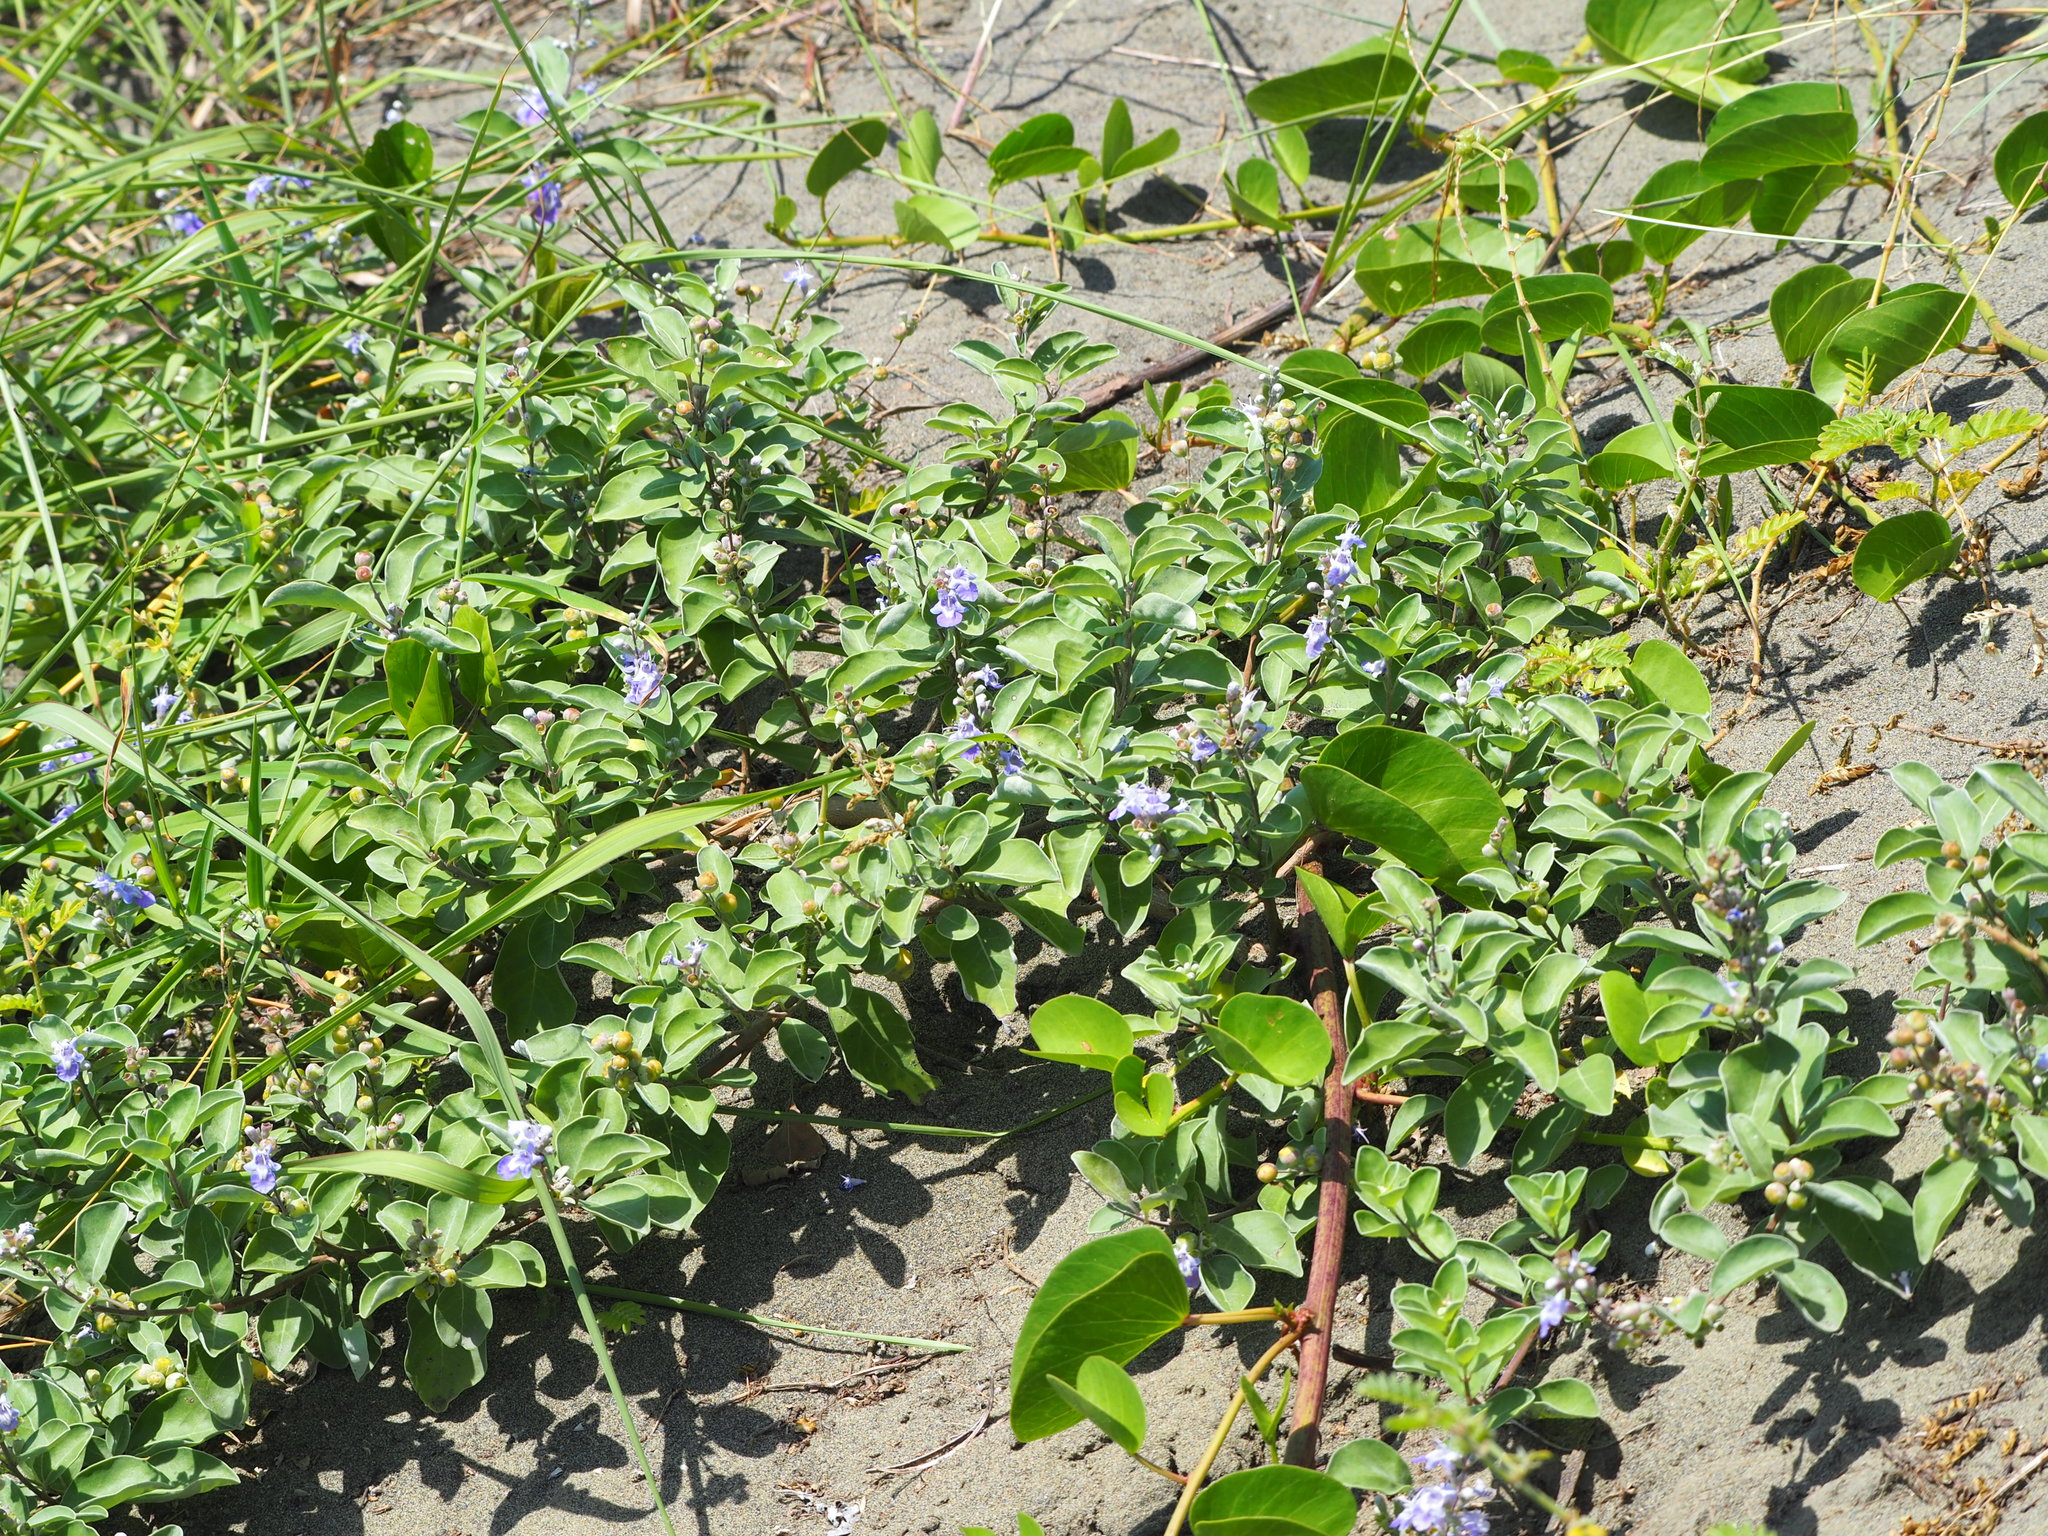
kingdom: Plantae
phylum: Tracheophyta
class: Magnoliopsida
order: Lamiales
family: Lamiaceae
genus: Vitex
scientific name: Vitex rotundifolia
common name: Beach vitex
